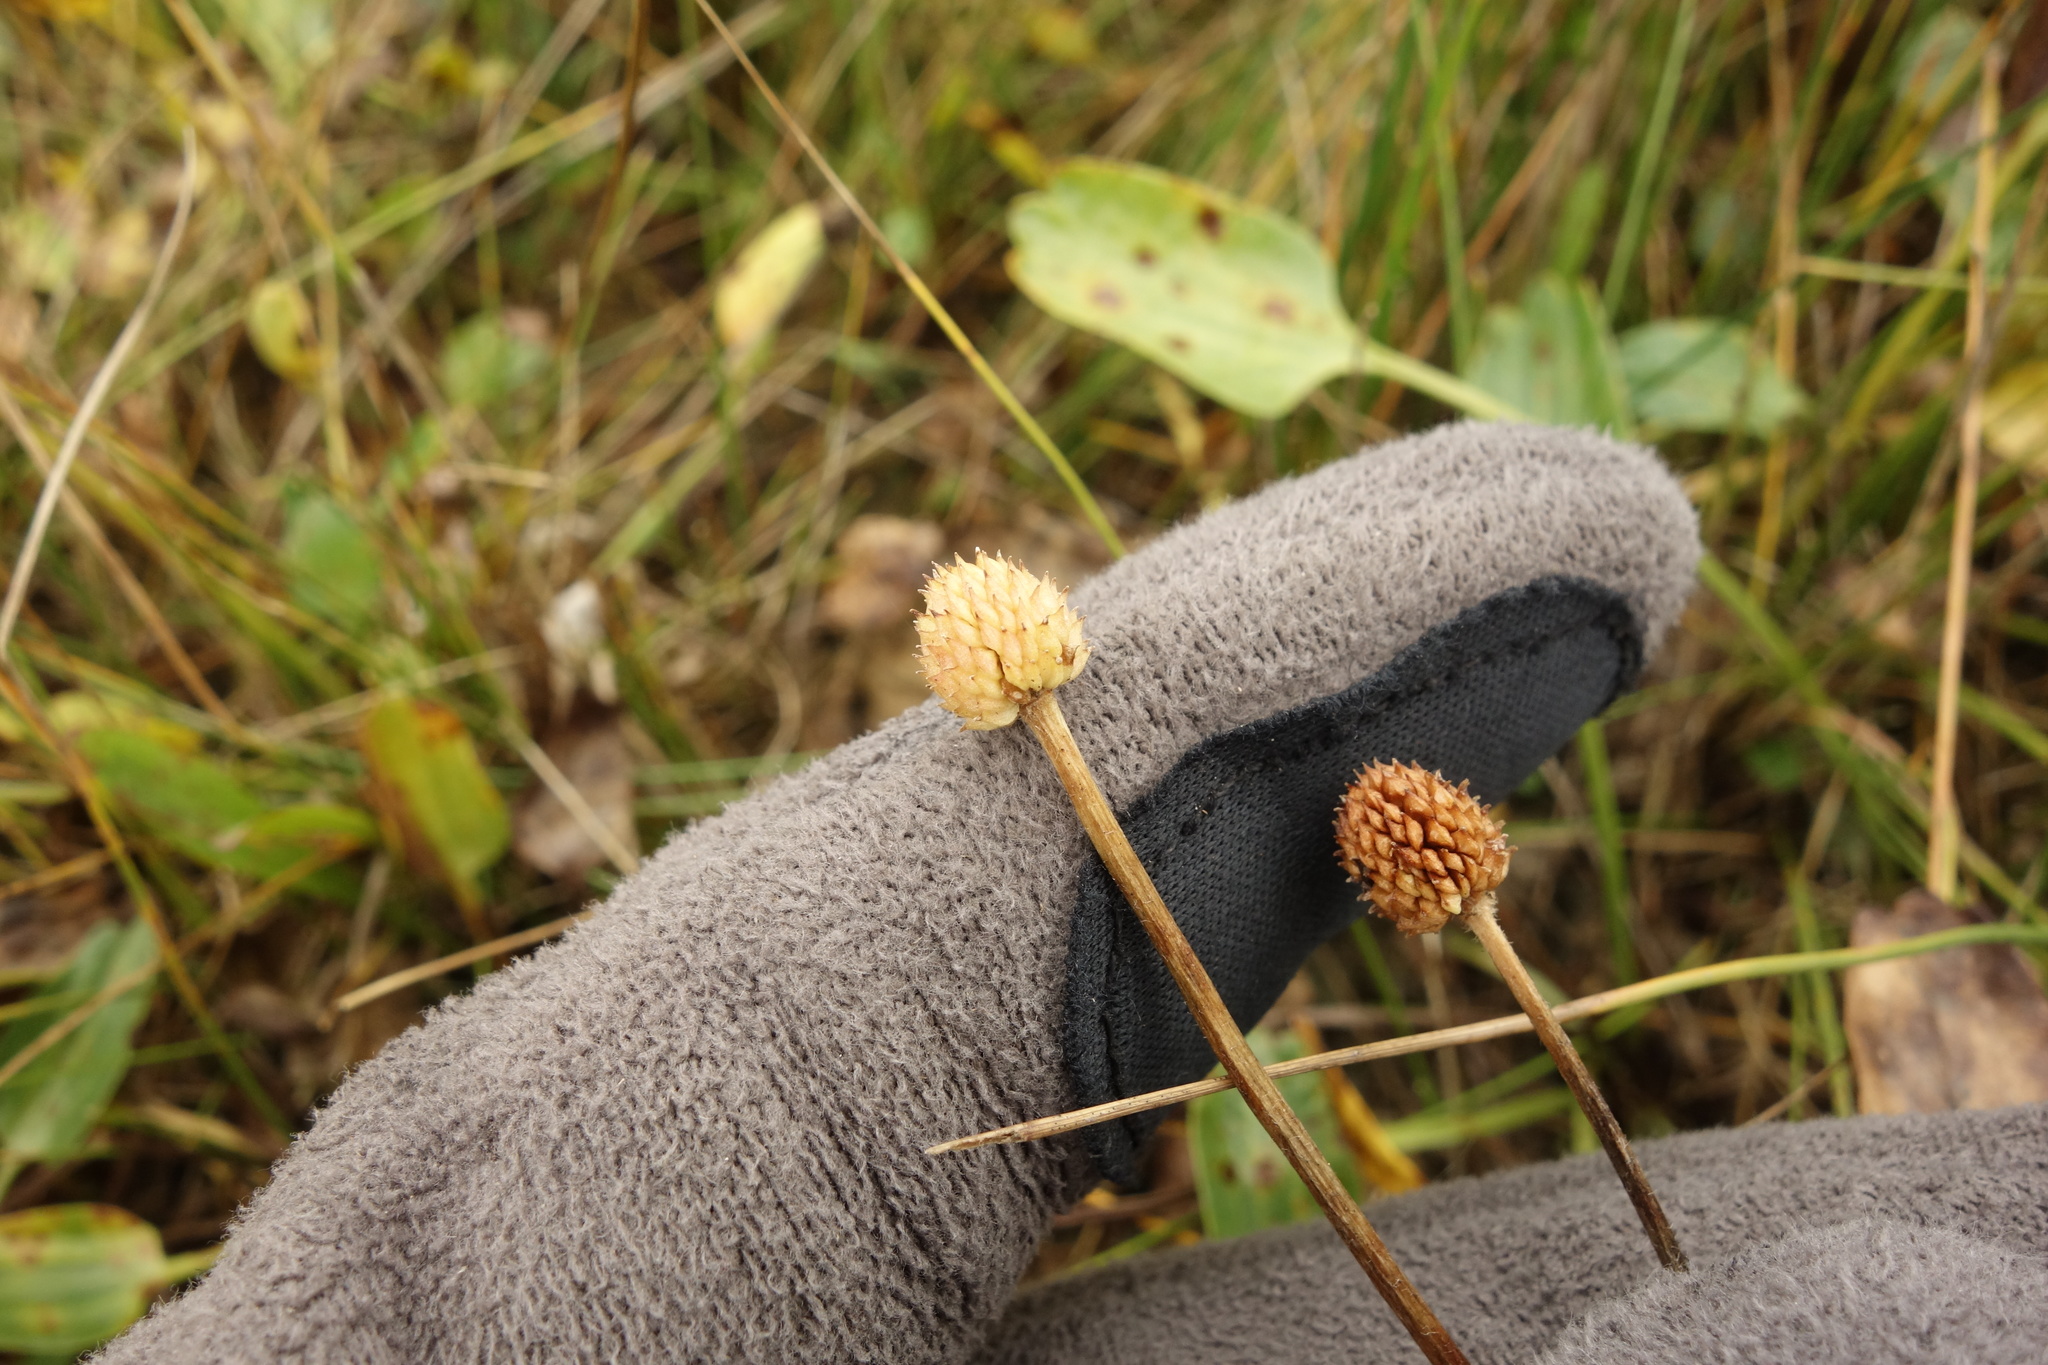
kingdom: Plantae
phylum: Tracheophyta
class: Magnoliopsida
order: Ranunculales
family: Ranunculaceae
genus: Halerpestes
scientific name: Halerpestes ruthenica
